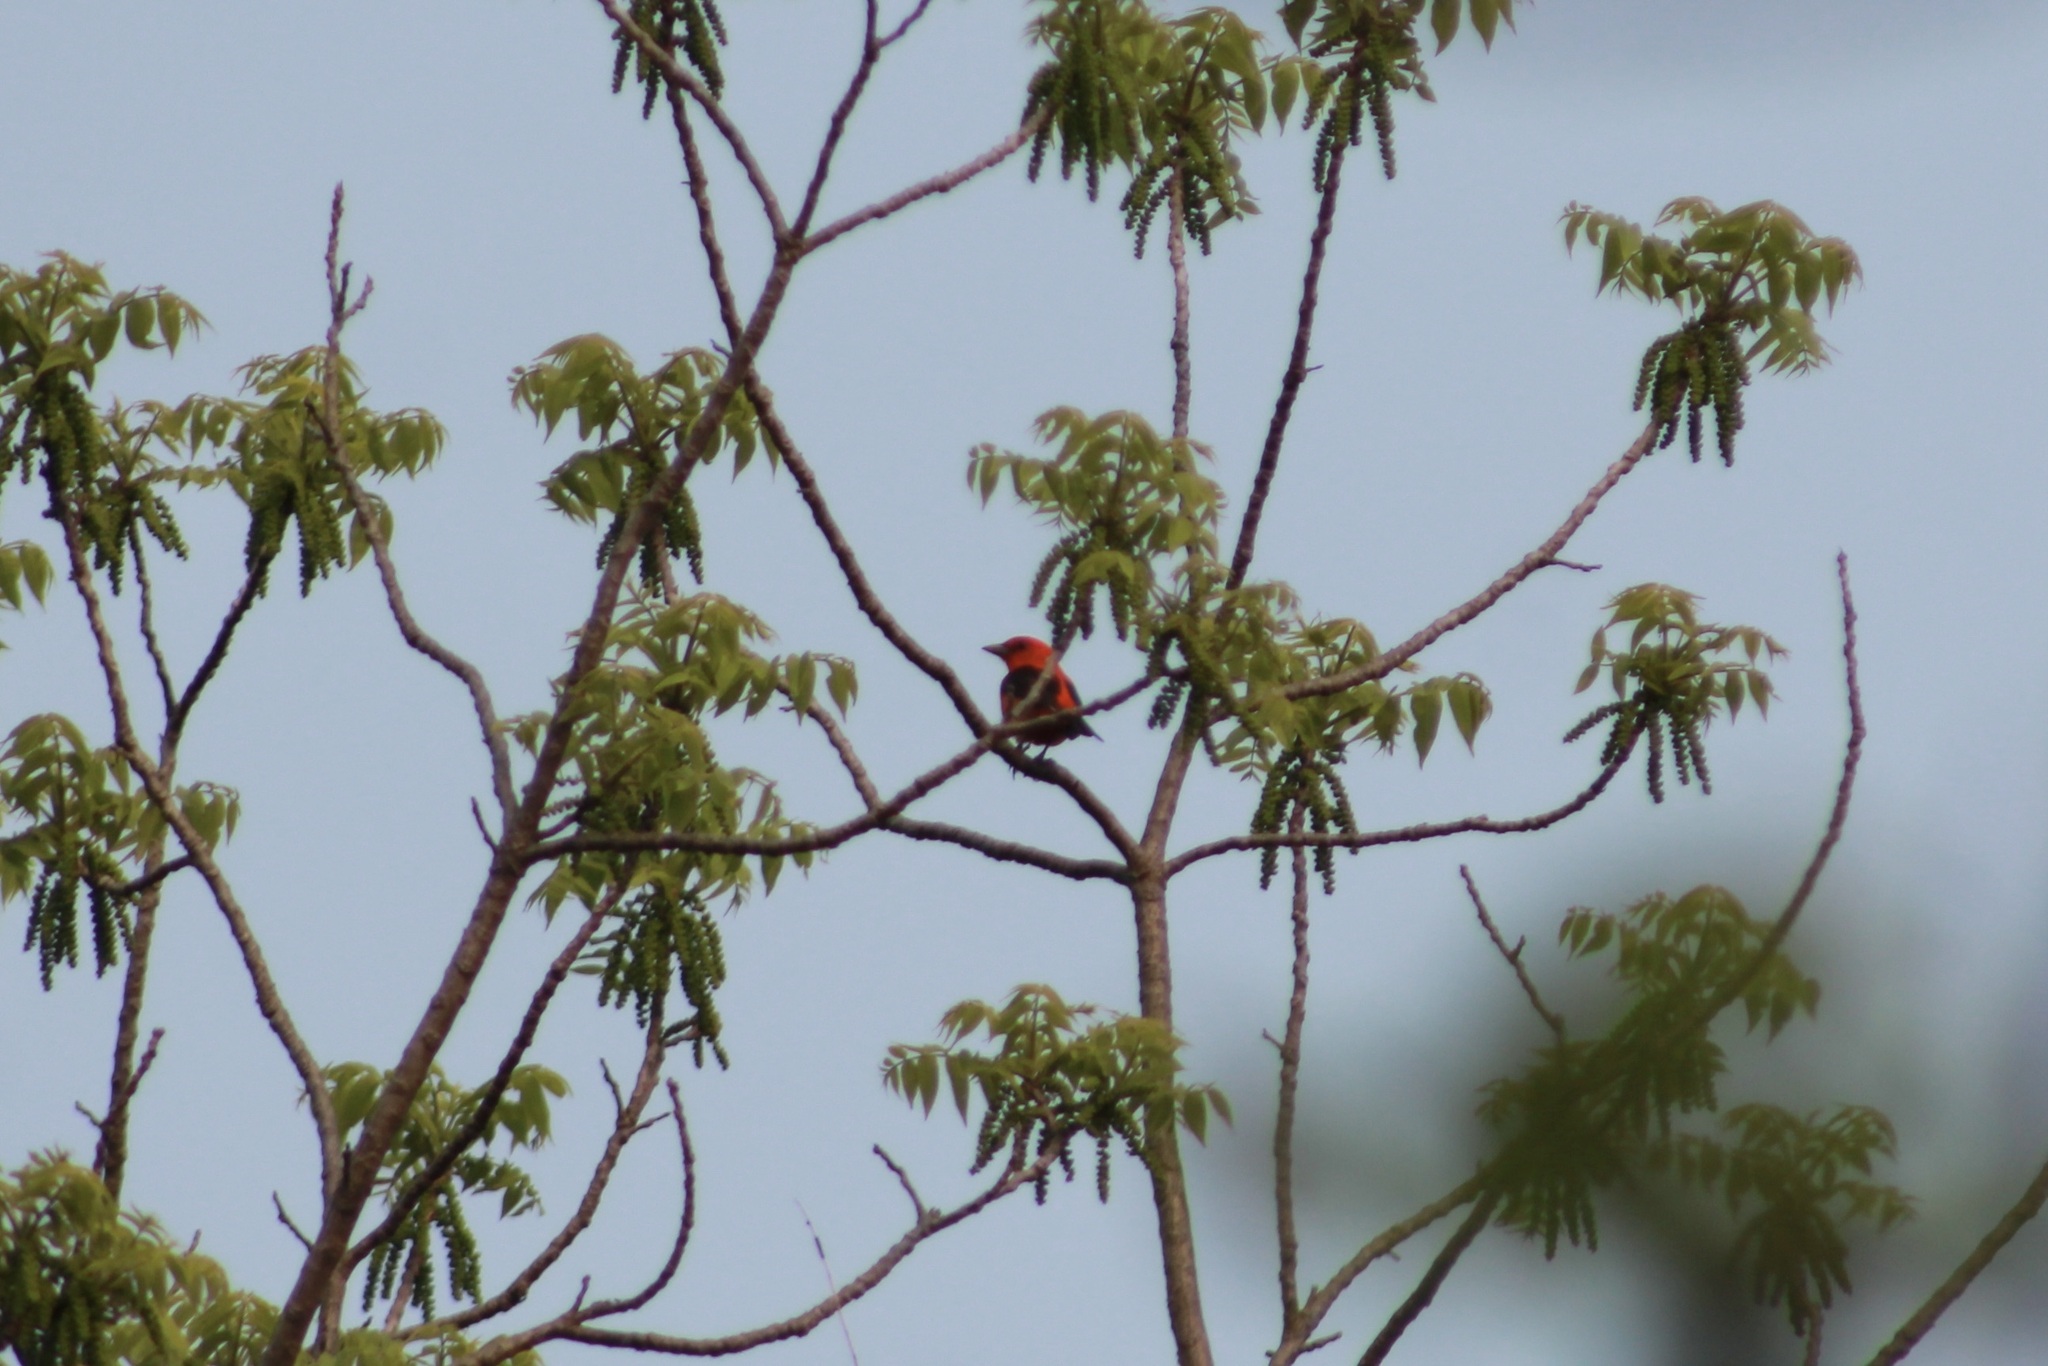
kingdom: Animalia
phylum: Chordata
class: Aves
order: Passeriformes
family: Cardinalidae
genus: Piranga
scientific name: Piranga olivacea
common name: Scarlet tanager
